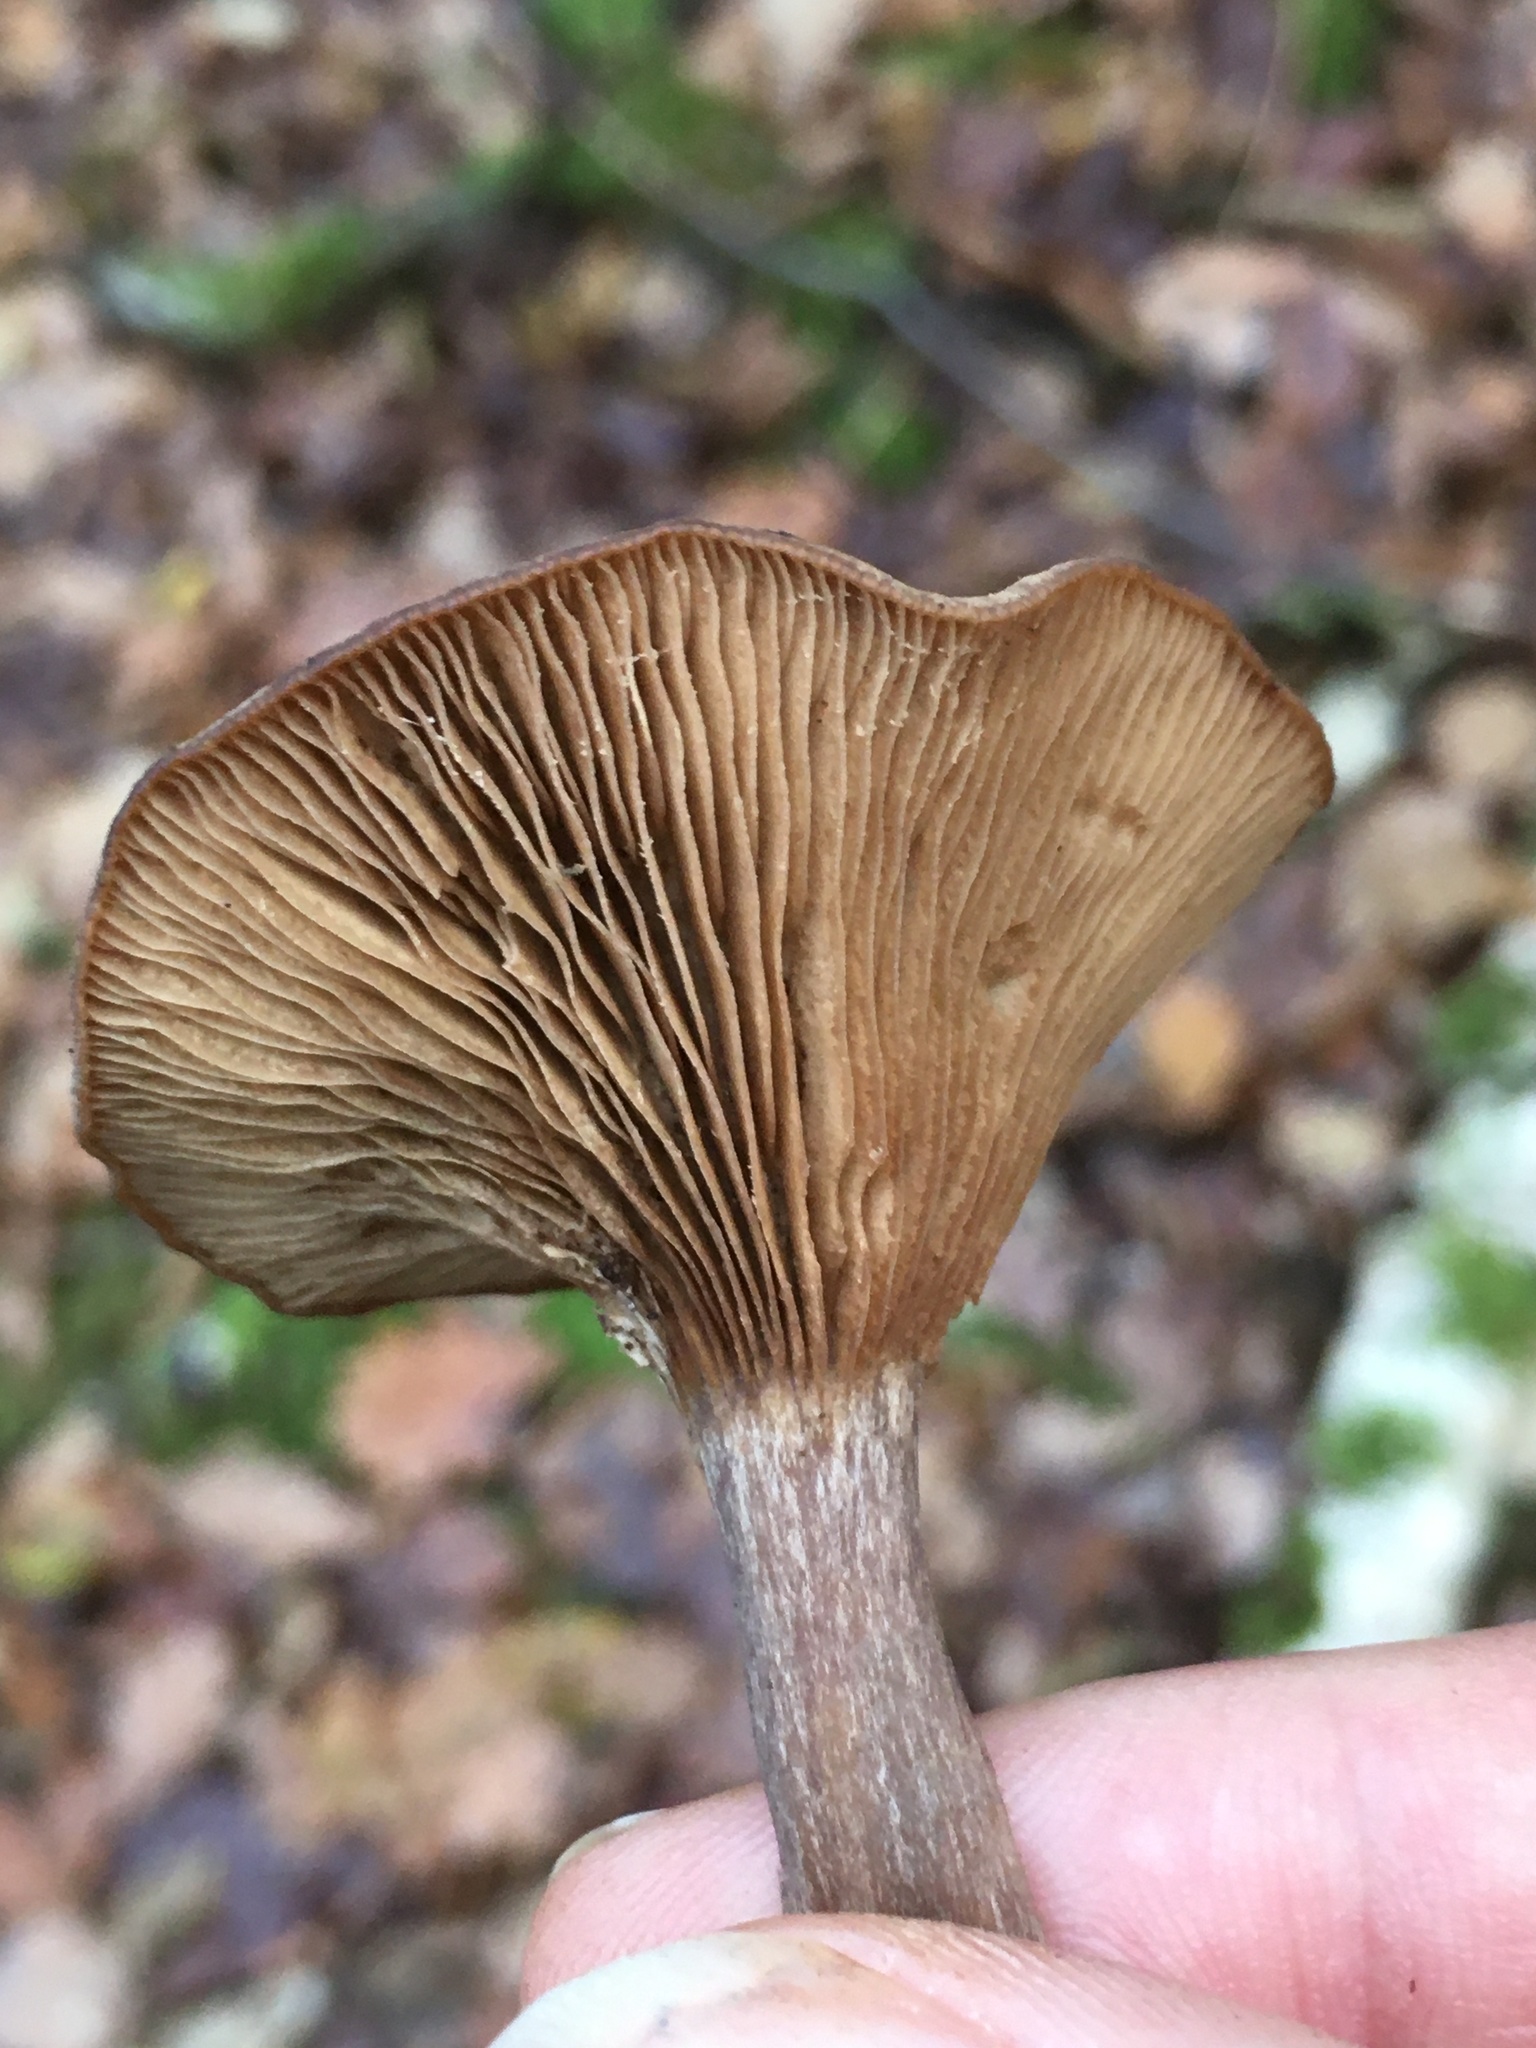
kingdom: Fungi
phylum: Basidiomycota
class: Agaricomycetes
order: Agaricales
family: Pseudoclitocybaceae
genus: Pseudoclitocybe
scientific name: Pseudoclitocybe cyathiformis
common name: Goblet
